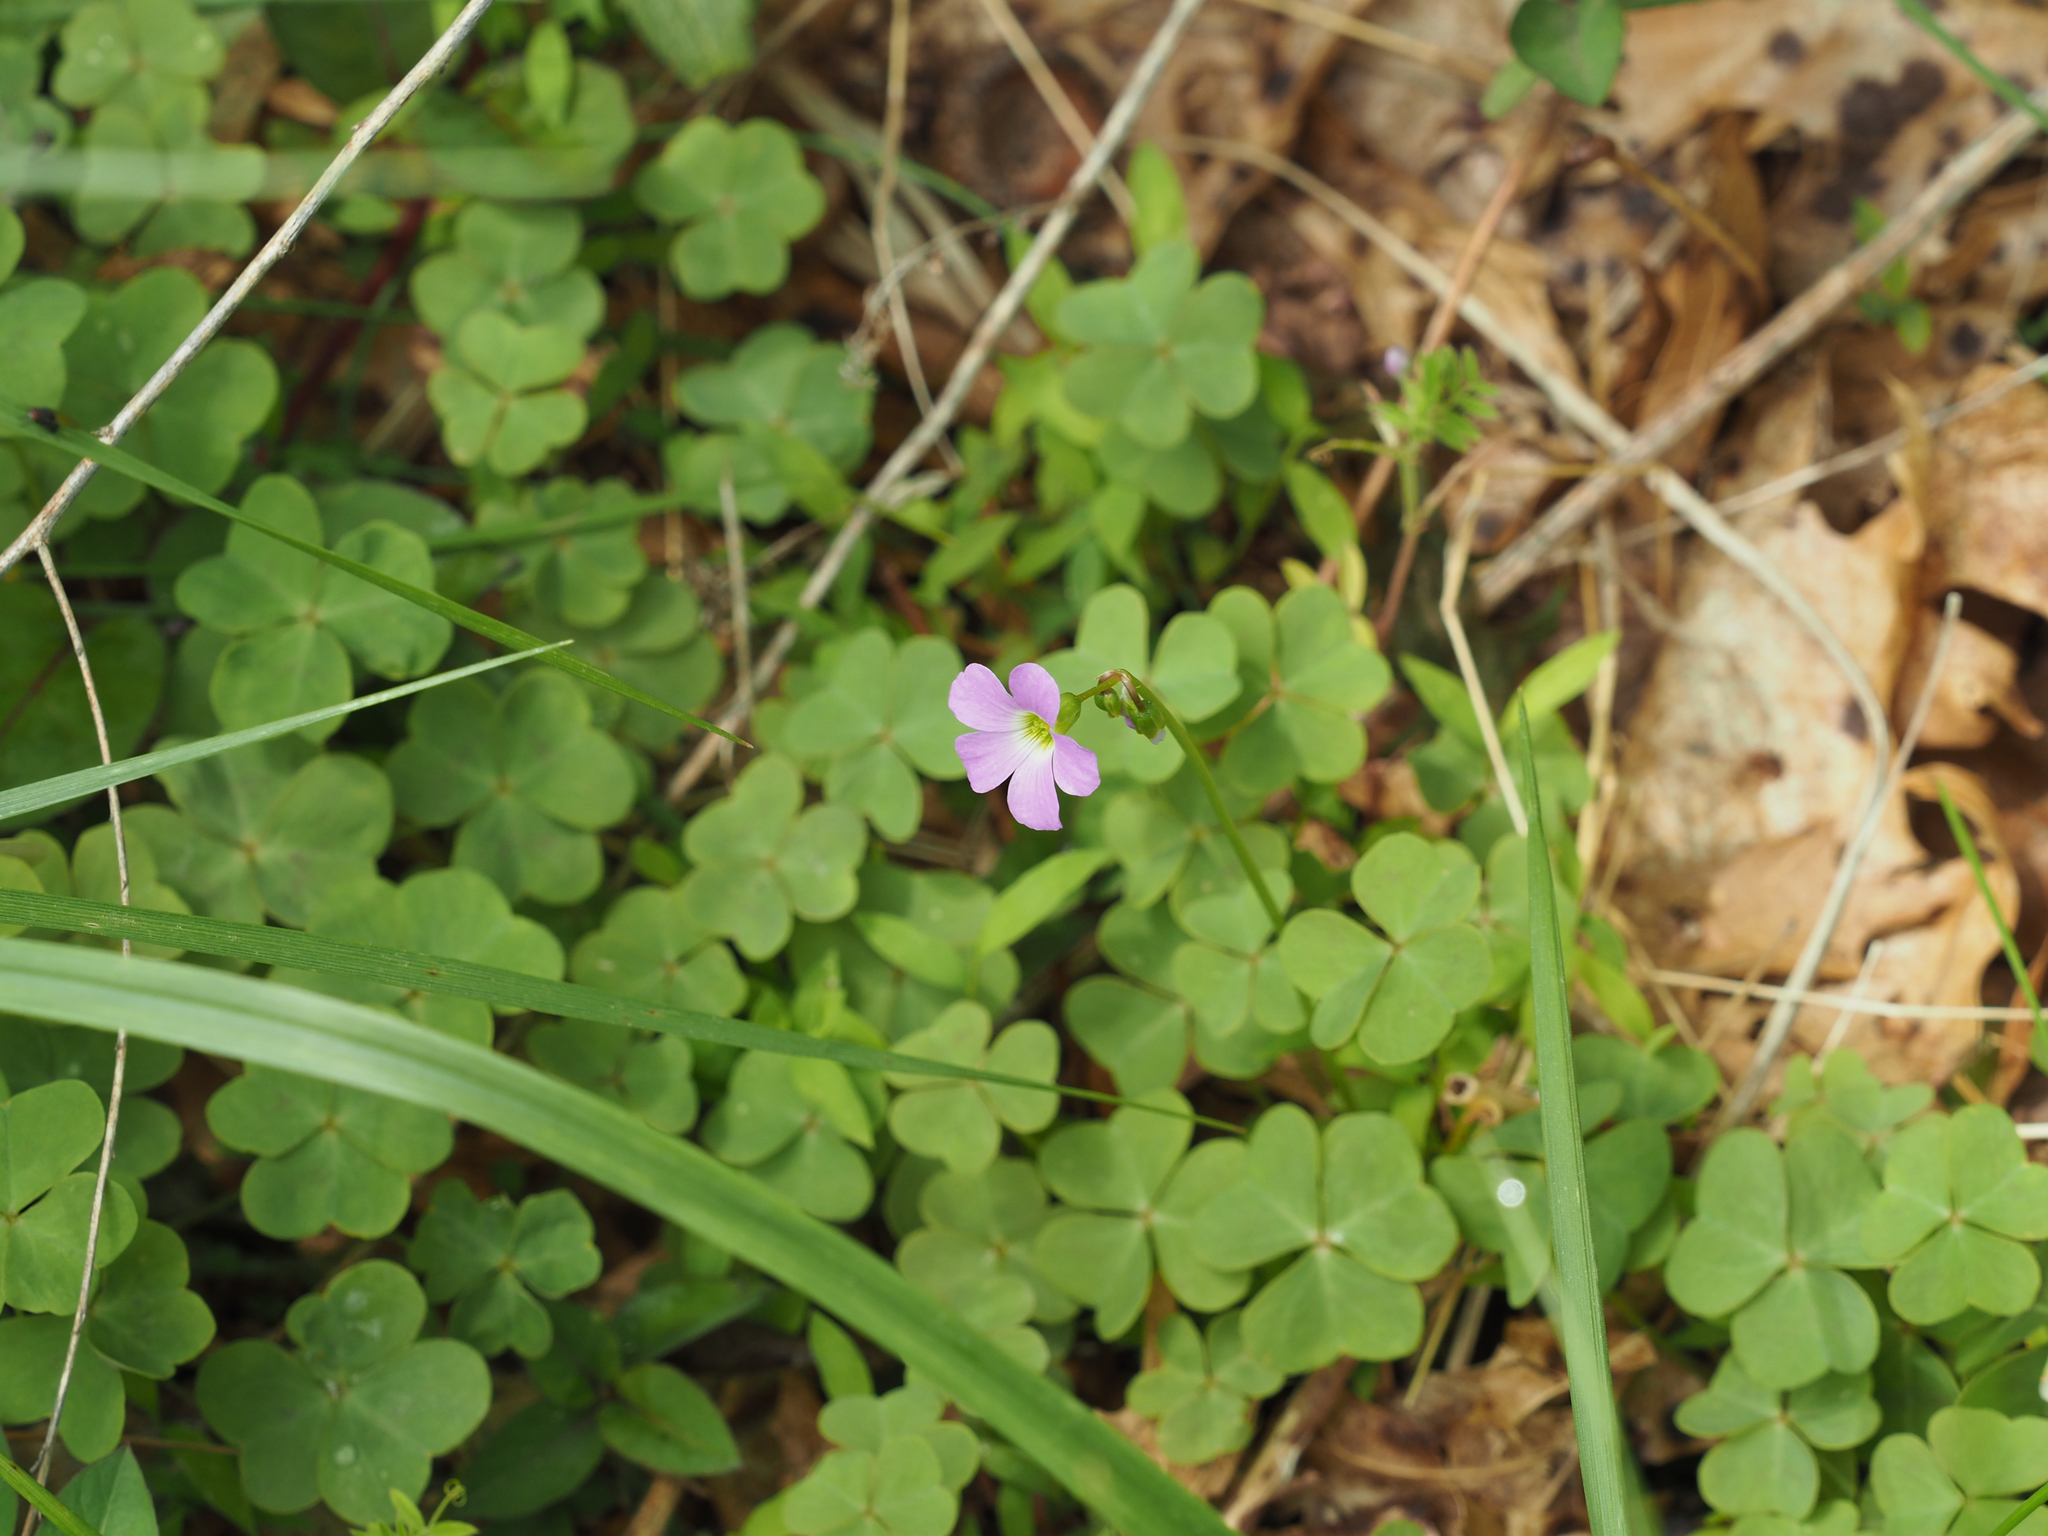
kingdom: Plantae
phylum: Tracheophyta
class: Magnoliopsida
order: Oxalidales
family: Oxalidaceae
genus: Oxalis
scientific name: Oxalis violacea
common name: Violet wood-sorrel
